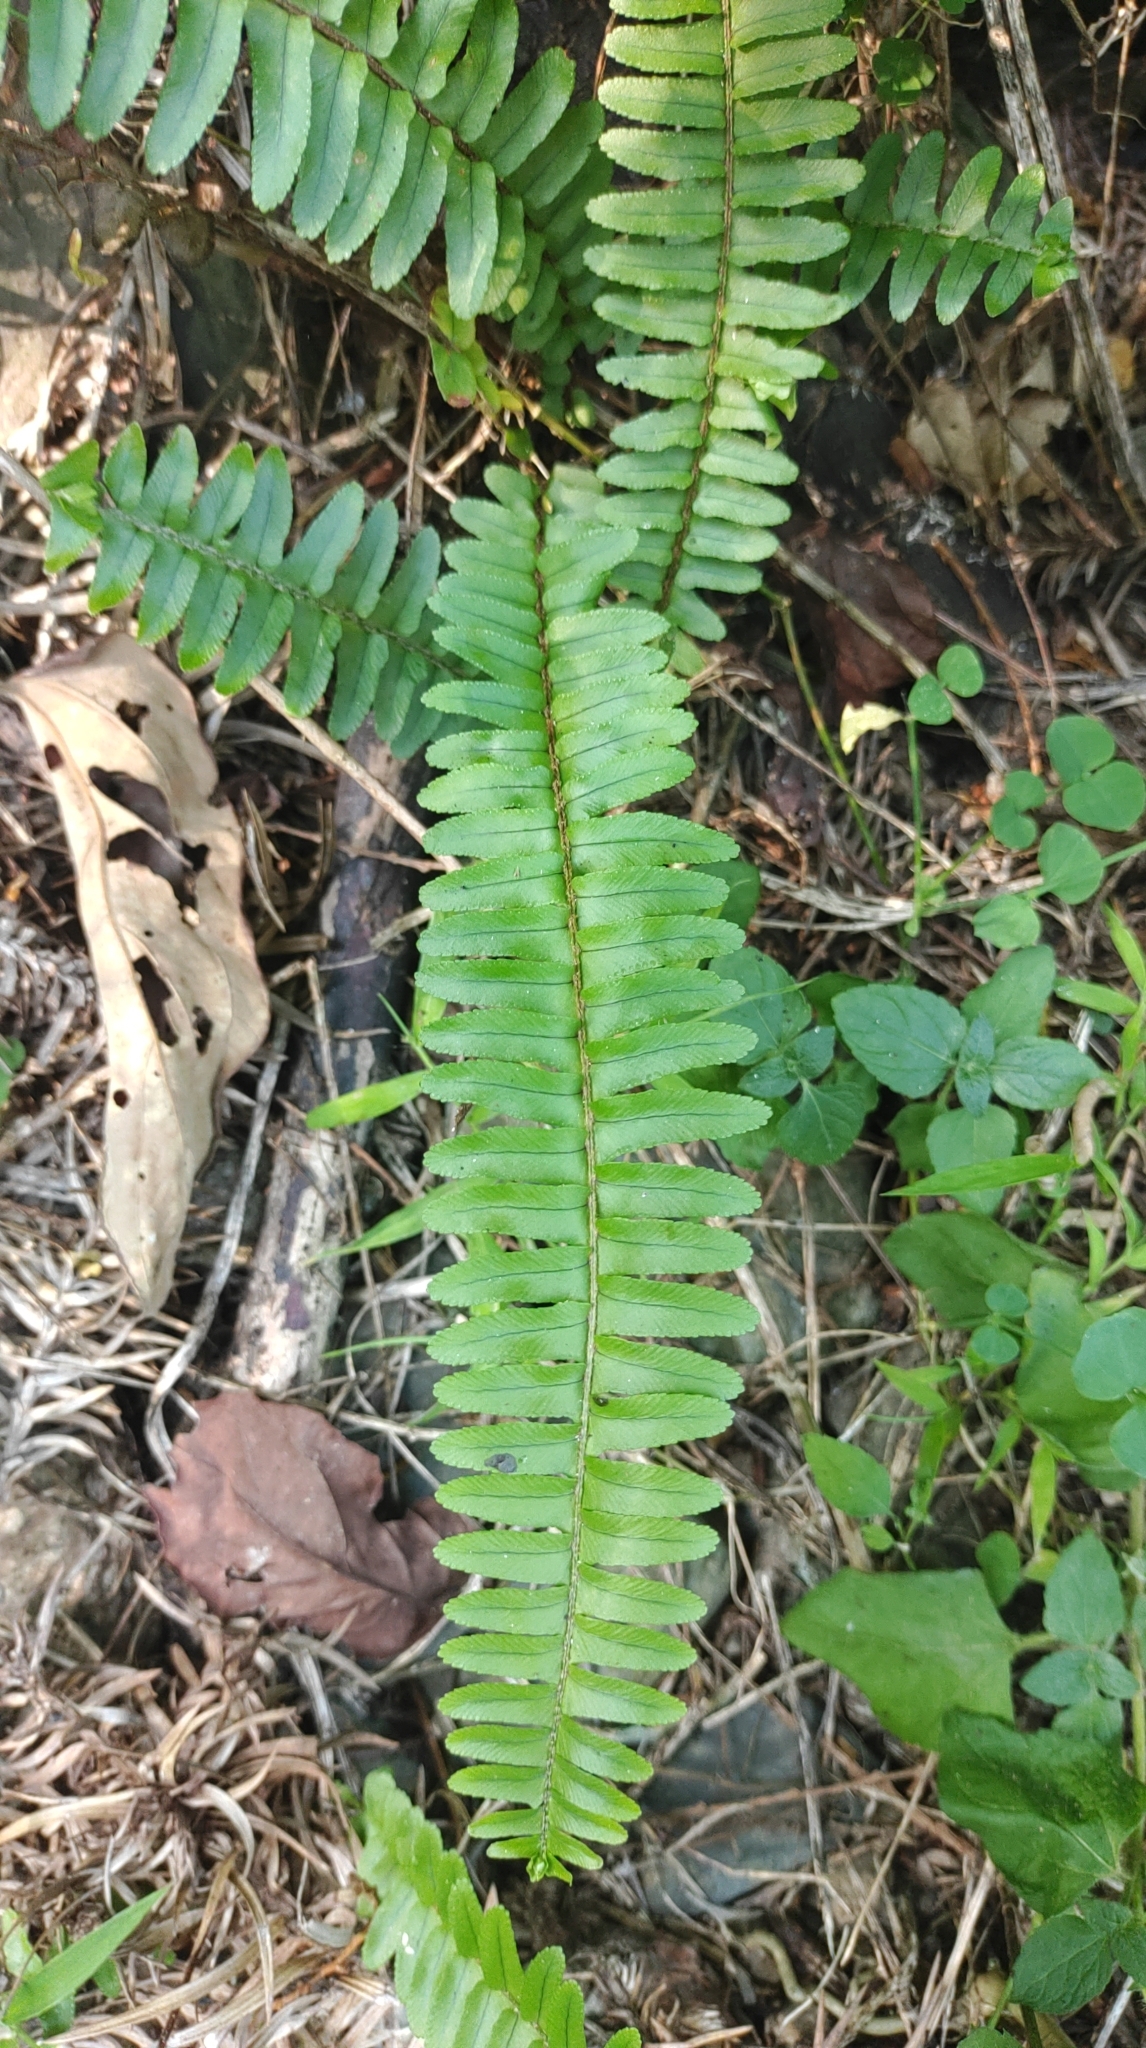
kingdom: Plantae
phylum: Tracheophyta
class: Polypodiopsida
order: Polypodiales
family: Nephrolepidaceae
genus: Nephrolepis
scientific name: Nephrolepis cordifolia
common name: Narrow swordfern
